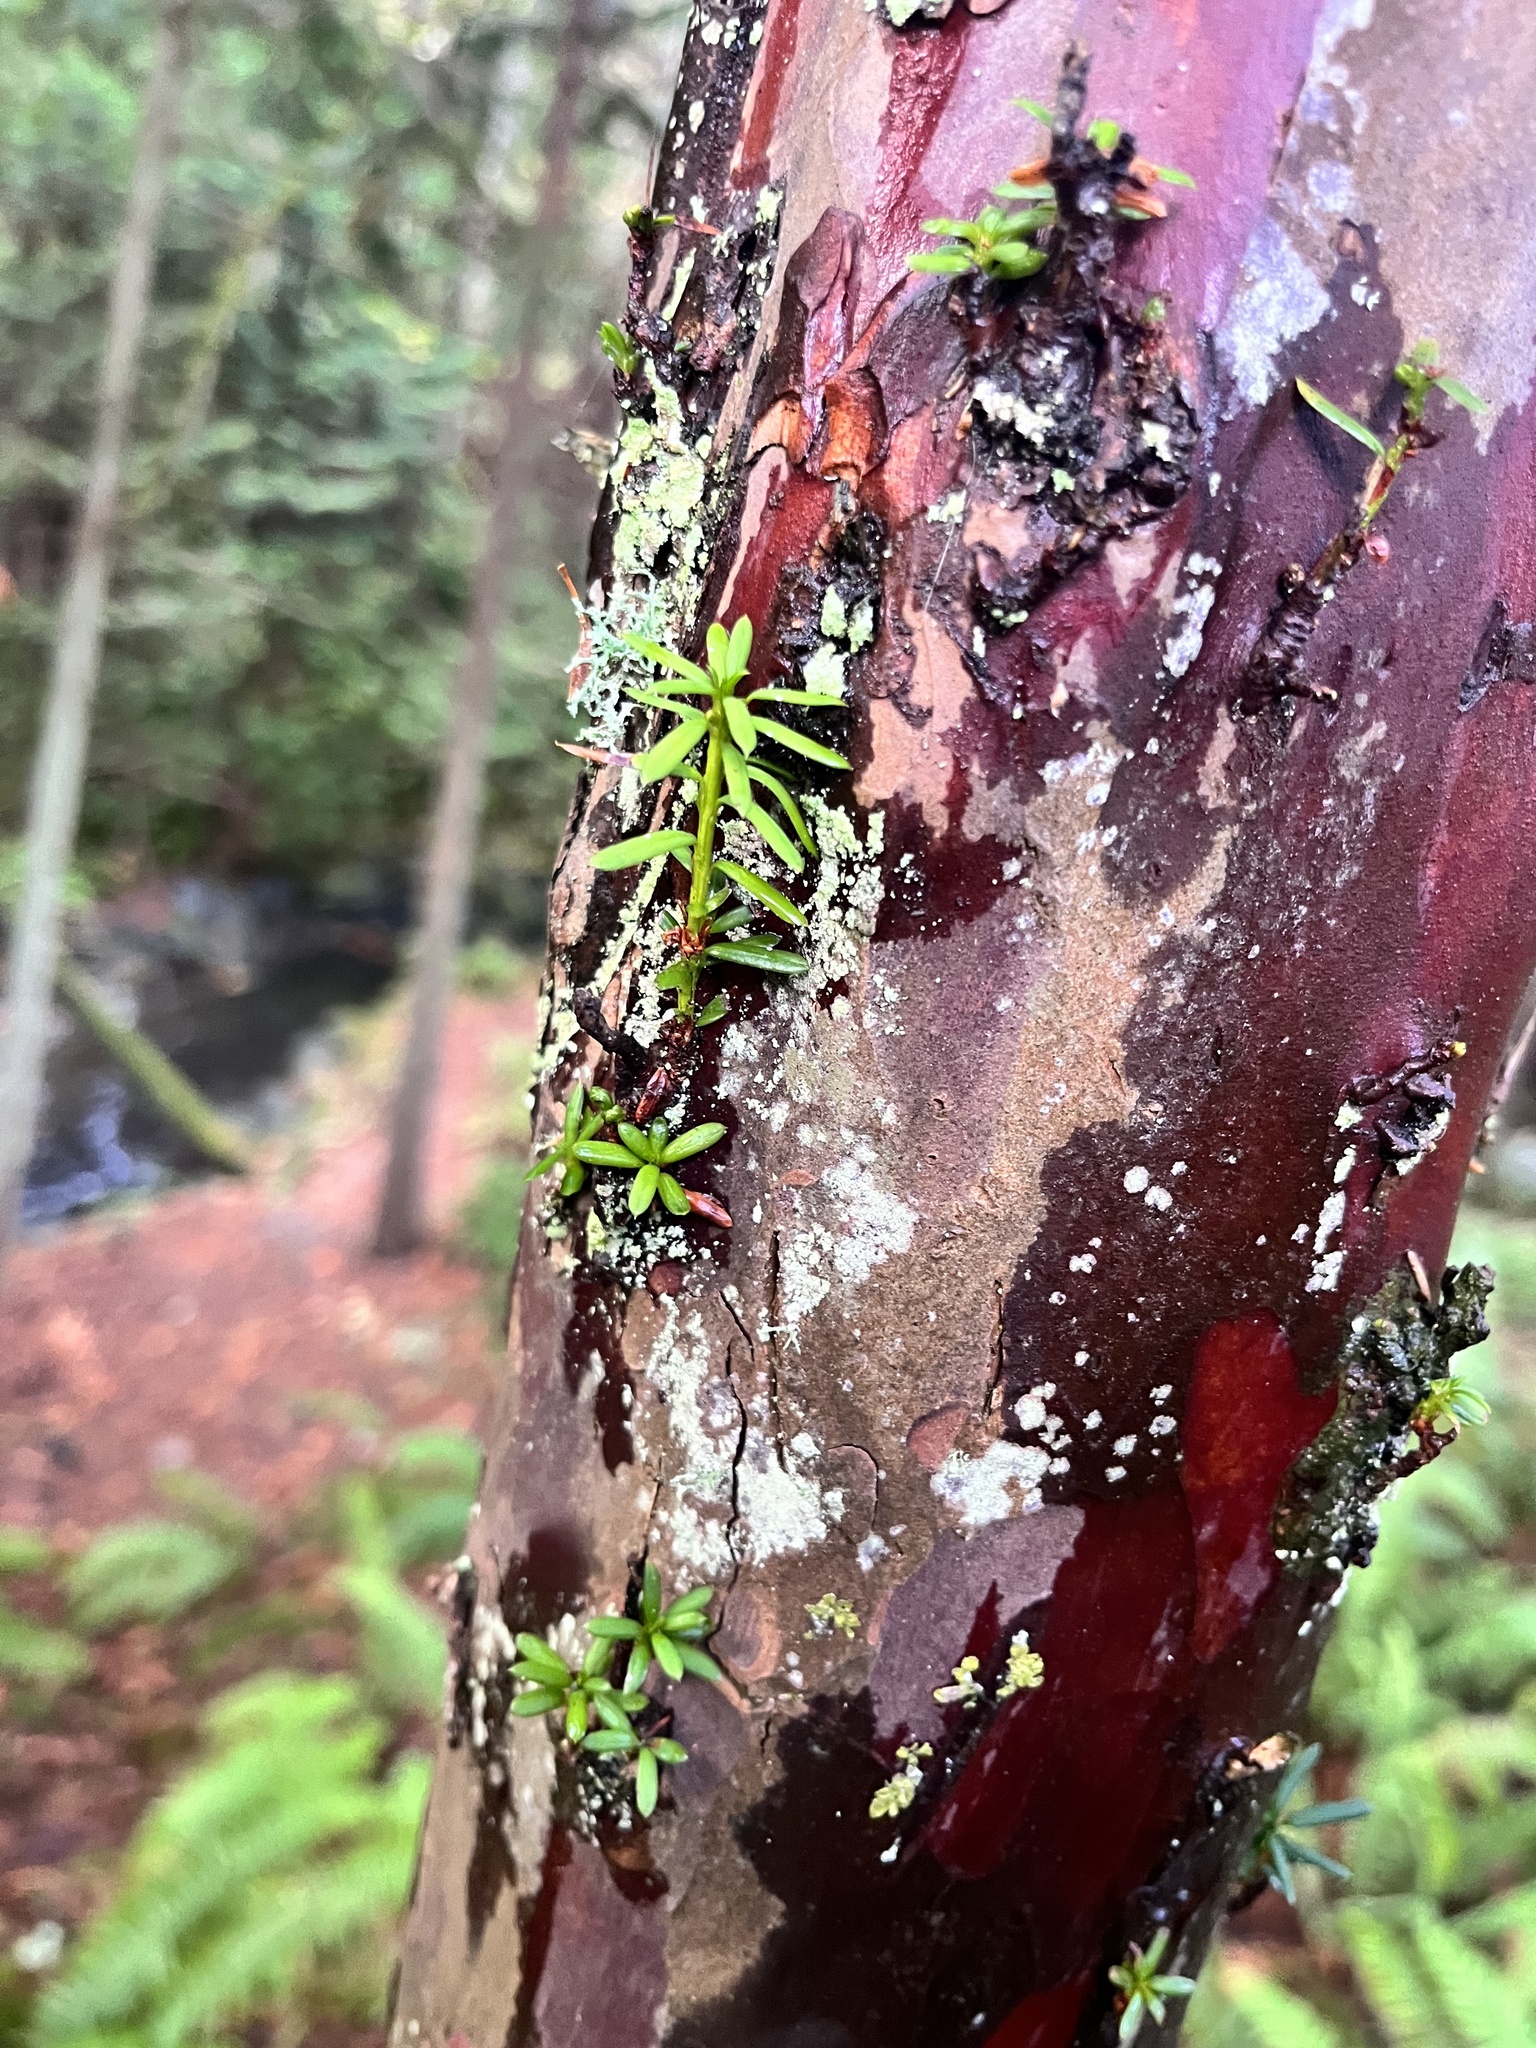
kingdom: Plantae
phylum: Tracheophyta
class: Pinopsida
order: Pinales
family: Taxaceae
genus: Taxus
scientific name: Taxus brevifolia
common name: Pacific yew
